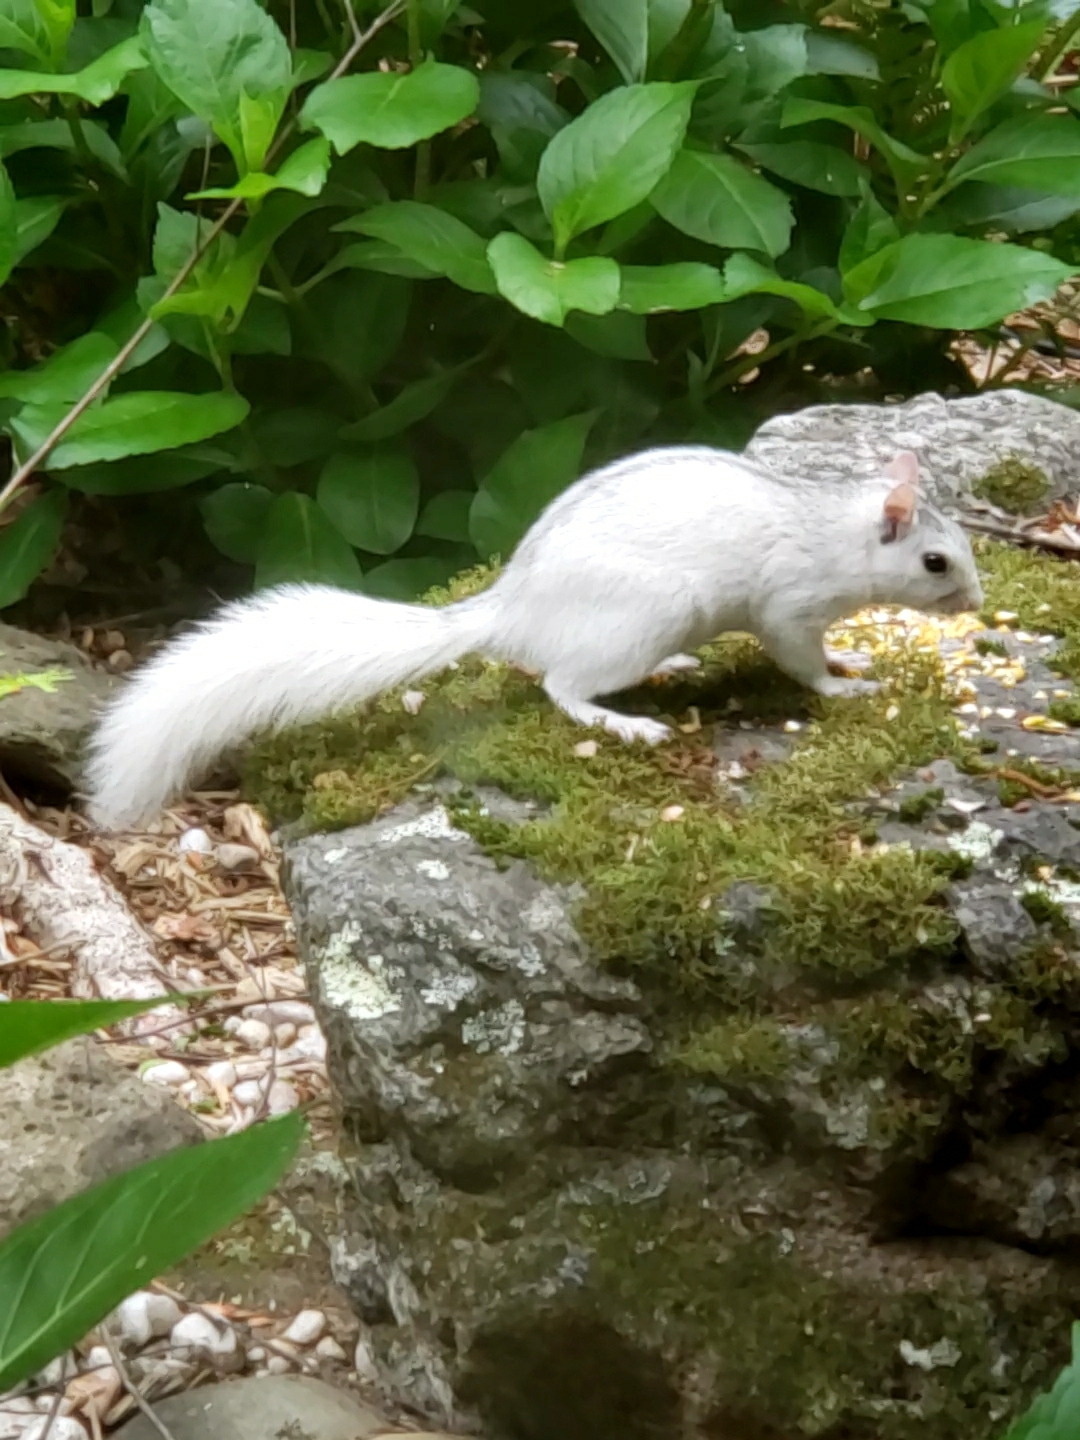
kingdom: Animalia
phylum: Chordata
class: Mammalia
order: Rodentia
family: Sciuridae
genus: Sciurus
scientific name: Sciurus carolinensis
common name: Eastern gray squirrel
